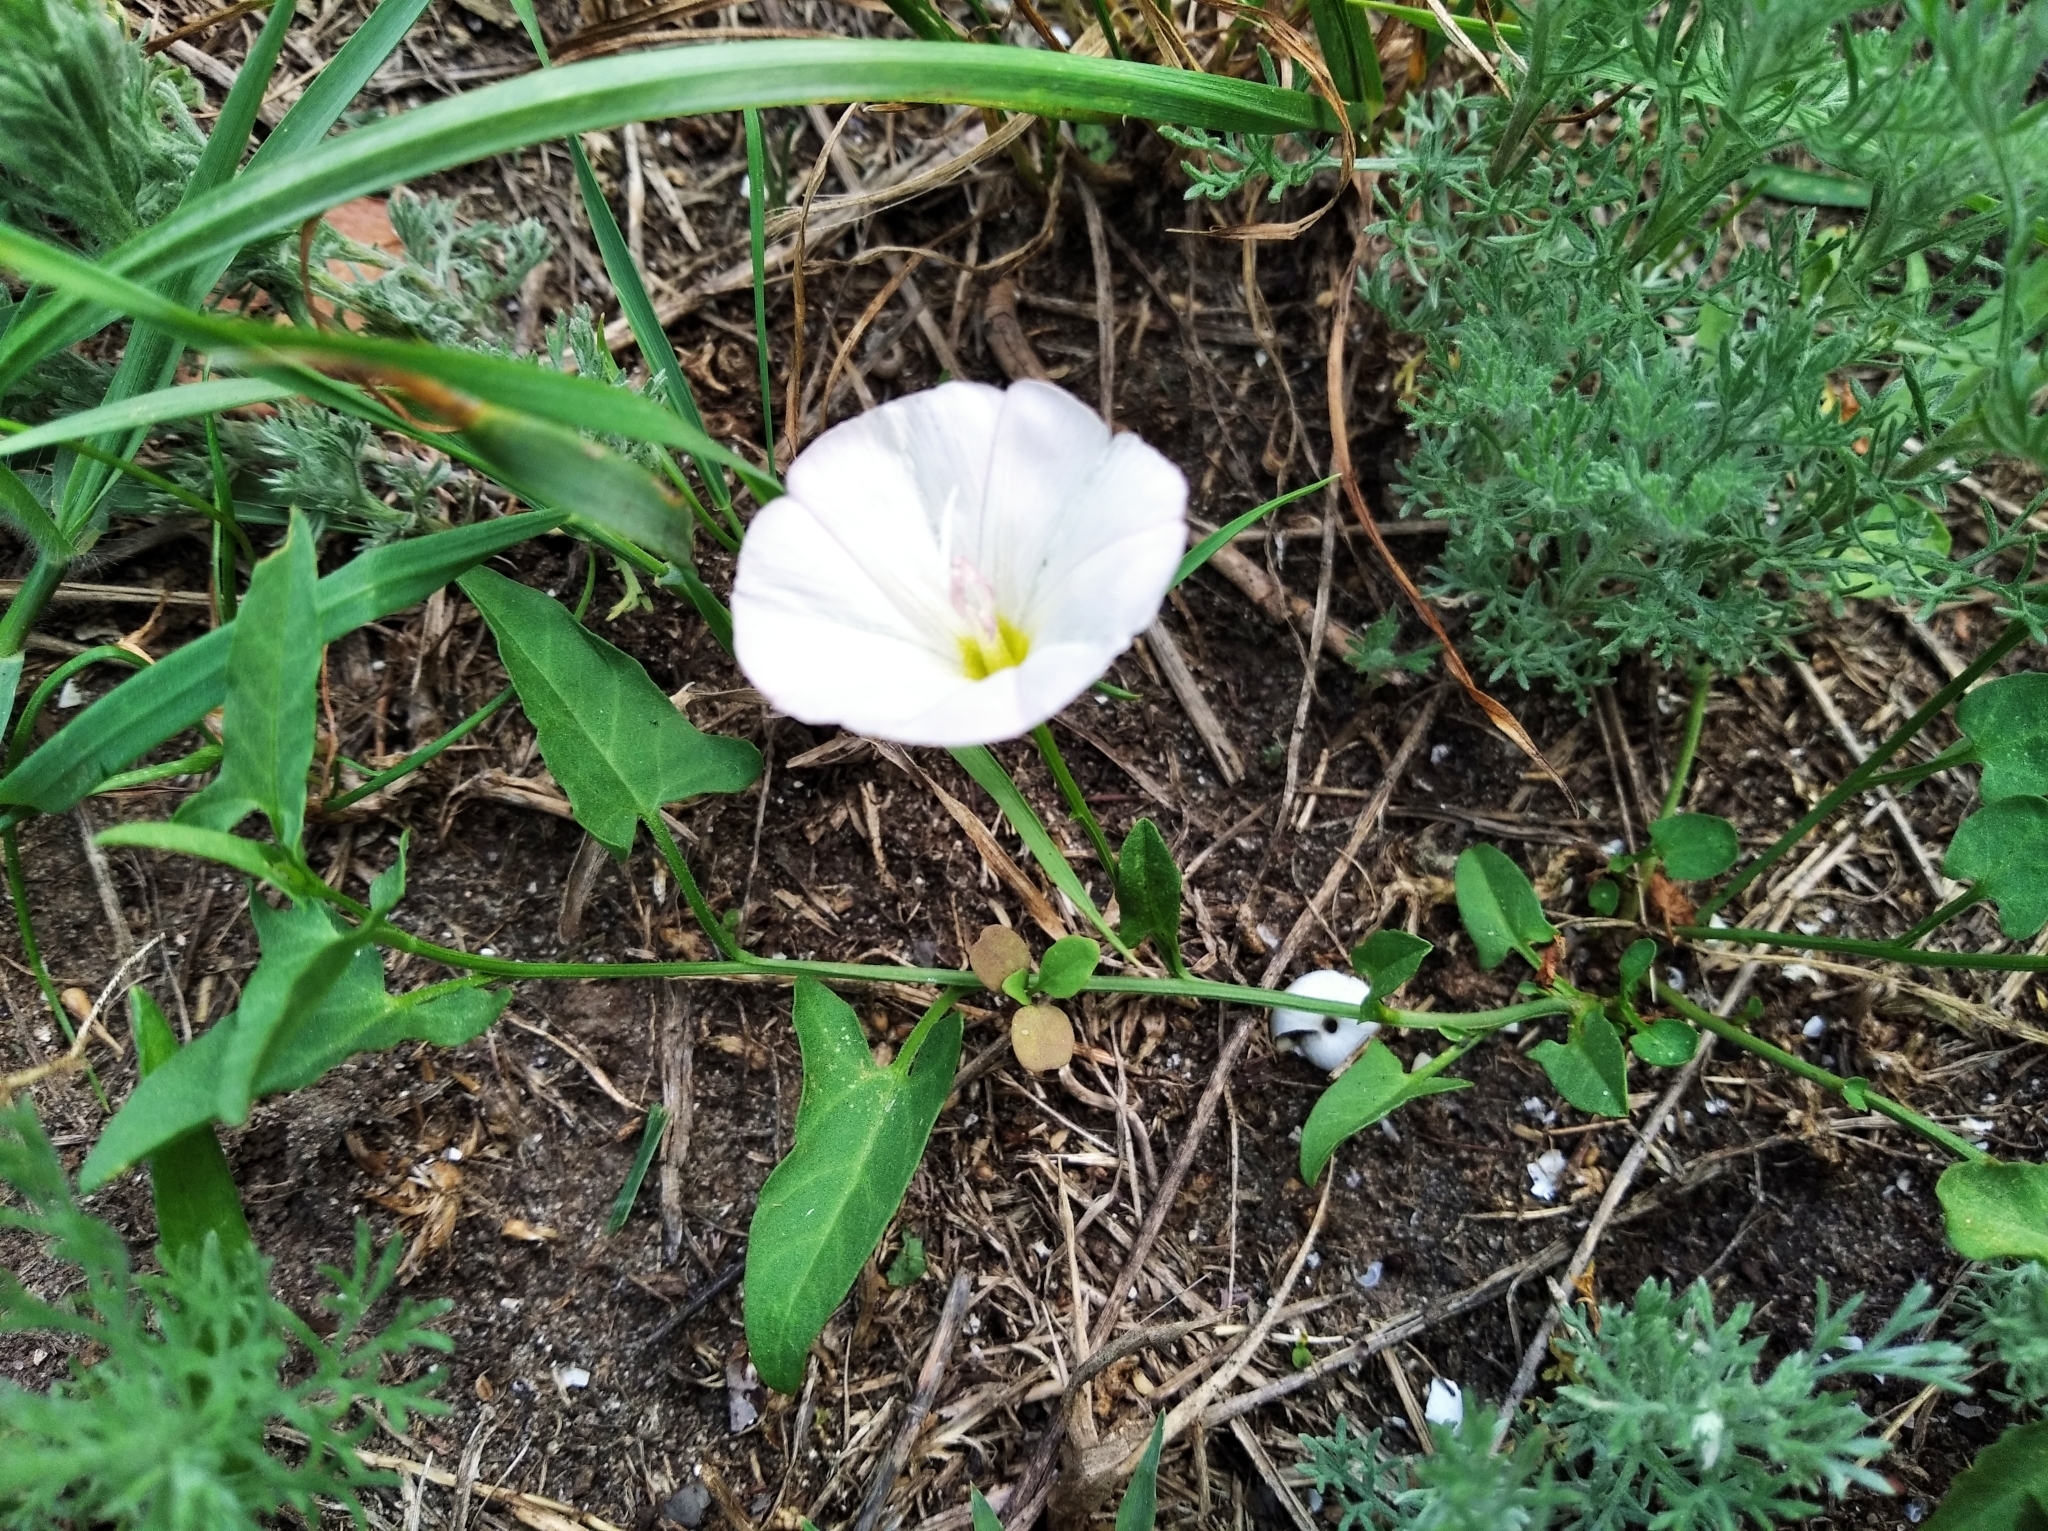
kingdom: Plantae
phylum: Tracheophyta
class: Magnoliopsida
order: Solanales
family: Convolvulaceae
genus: Convolvulus
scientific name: Convolvulus arvensis
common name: Field bindweed
